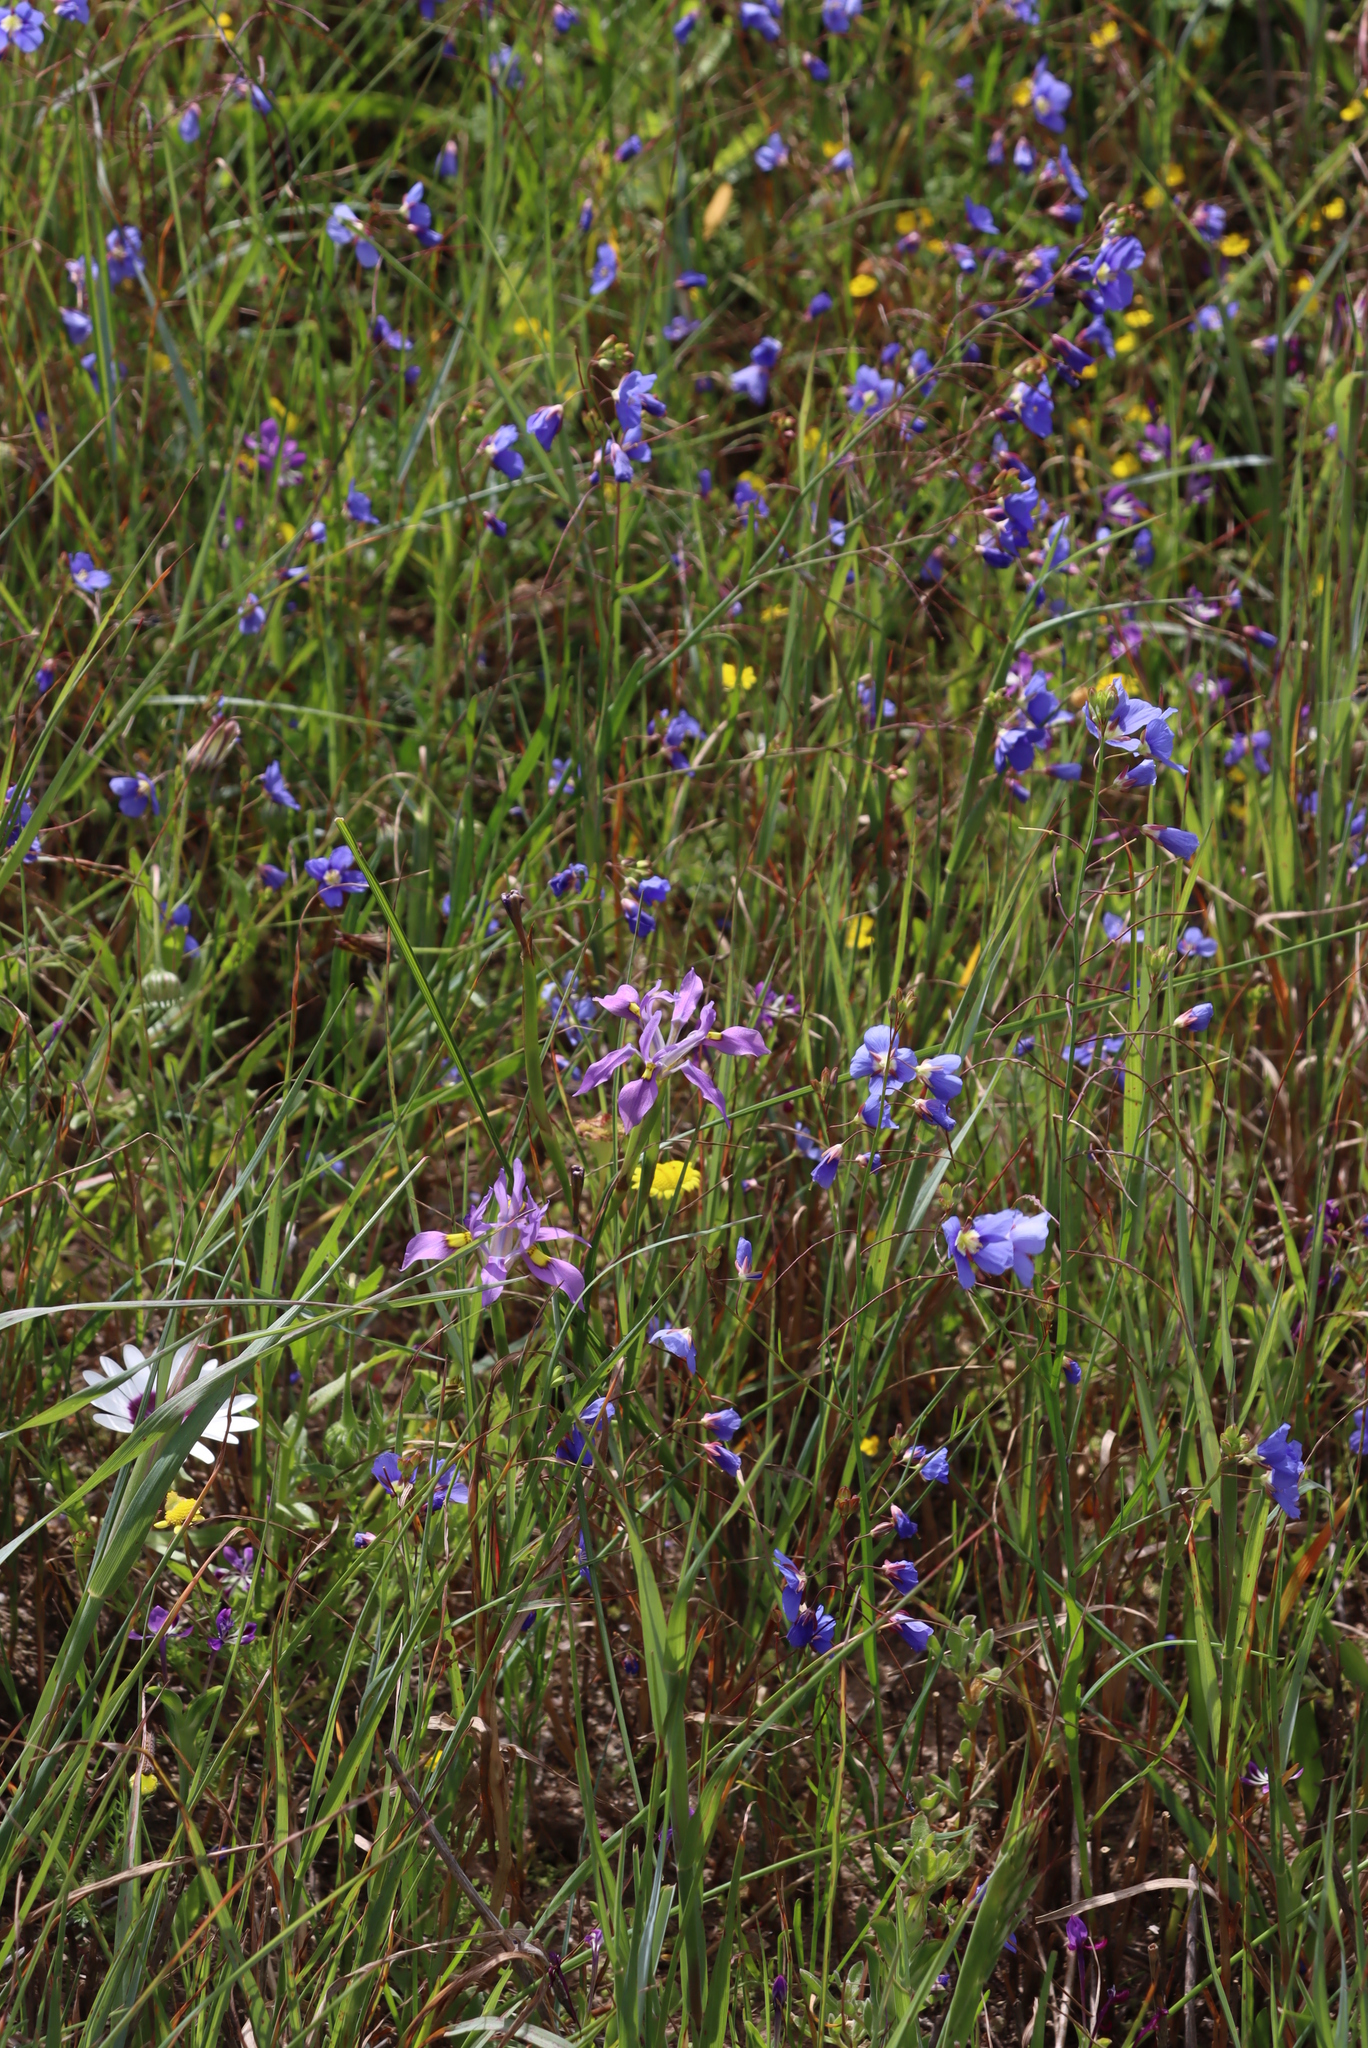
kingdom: Plantae
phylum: Tracheophyta
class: Liliopsida
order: Asparagales
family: Iridaceae
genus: Moraea
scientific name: Moraea fugax
